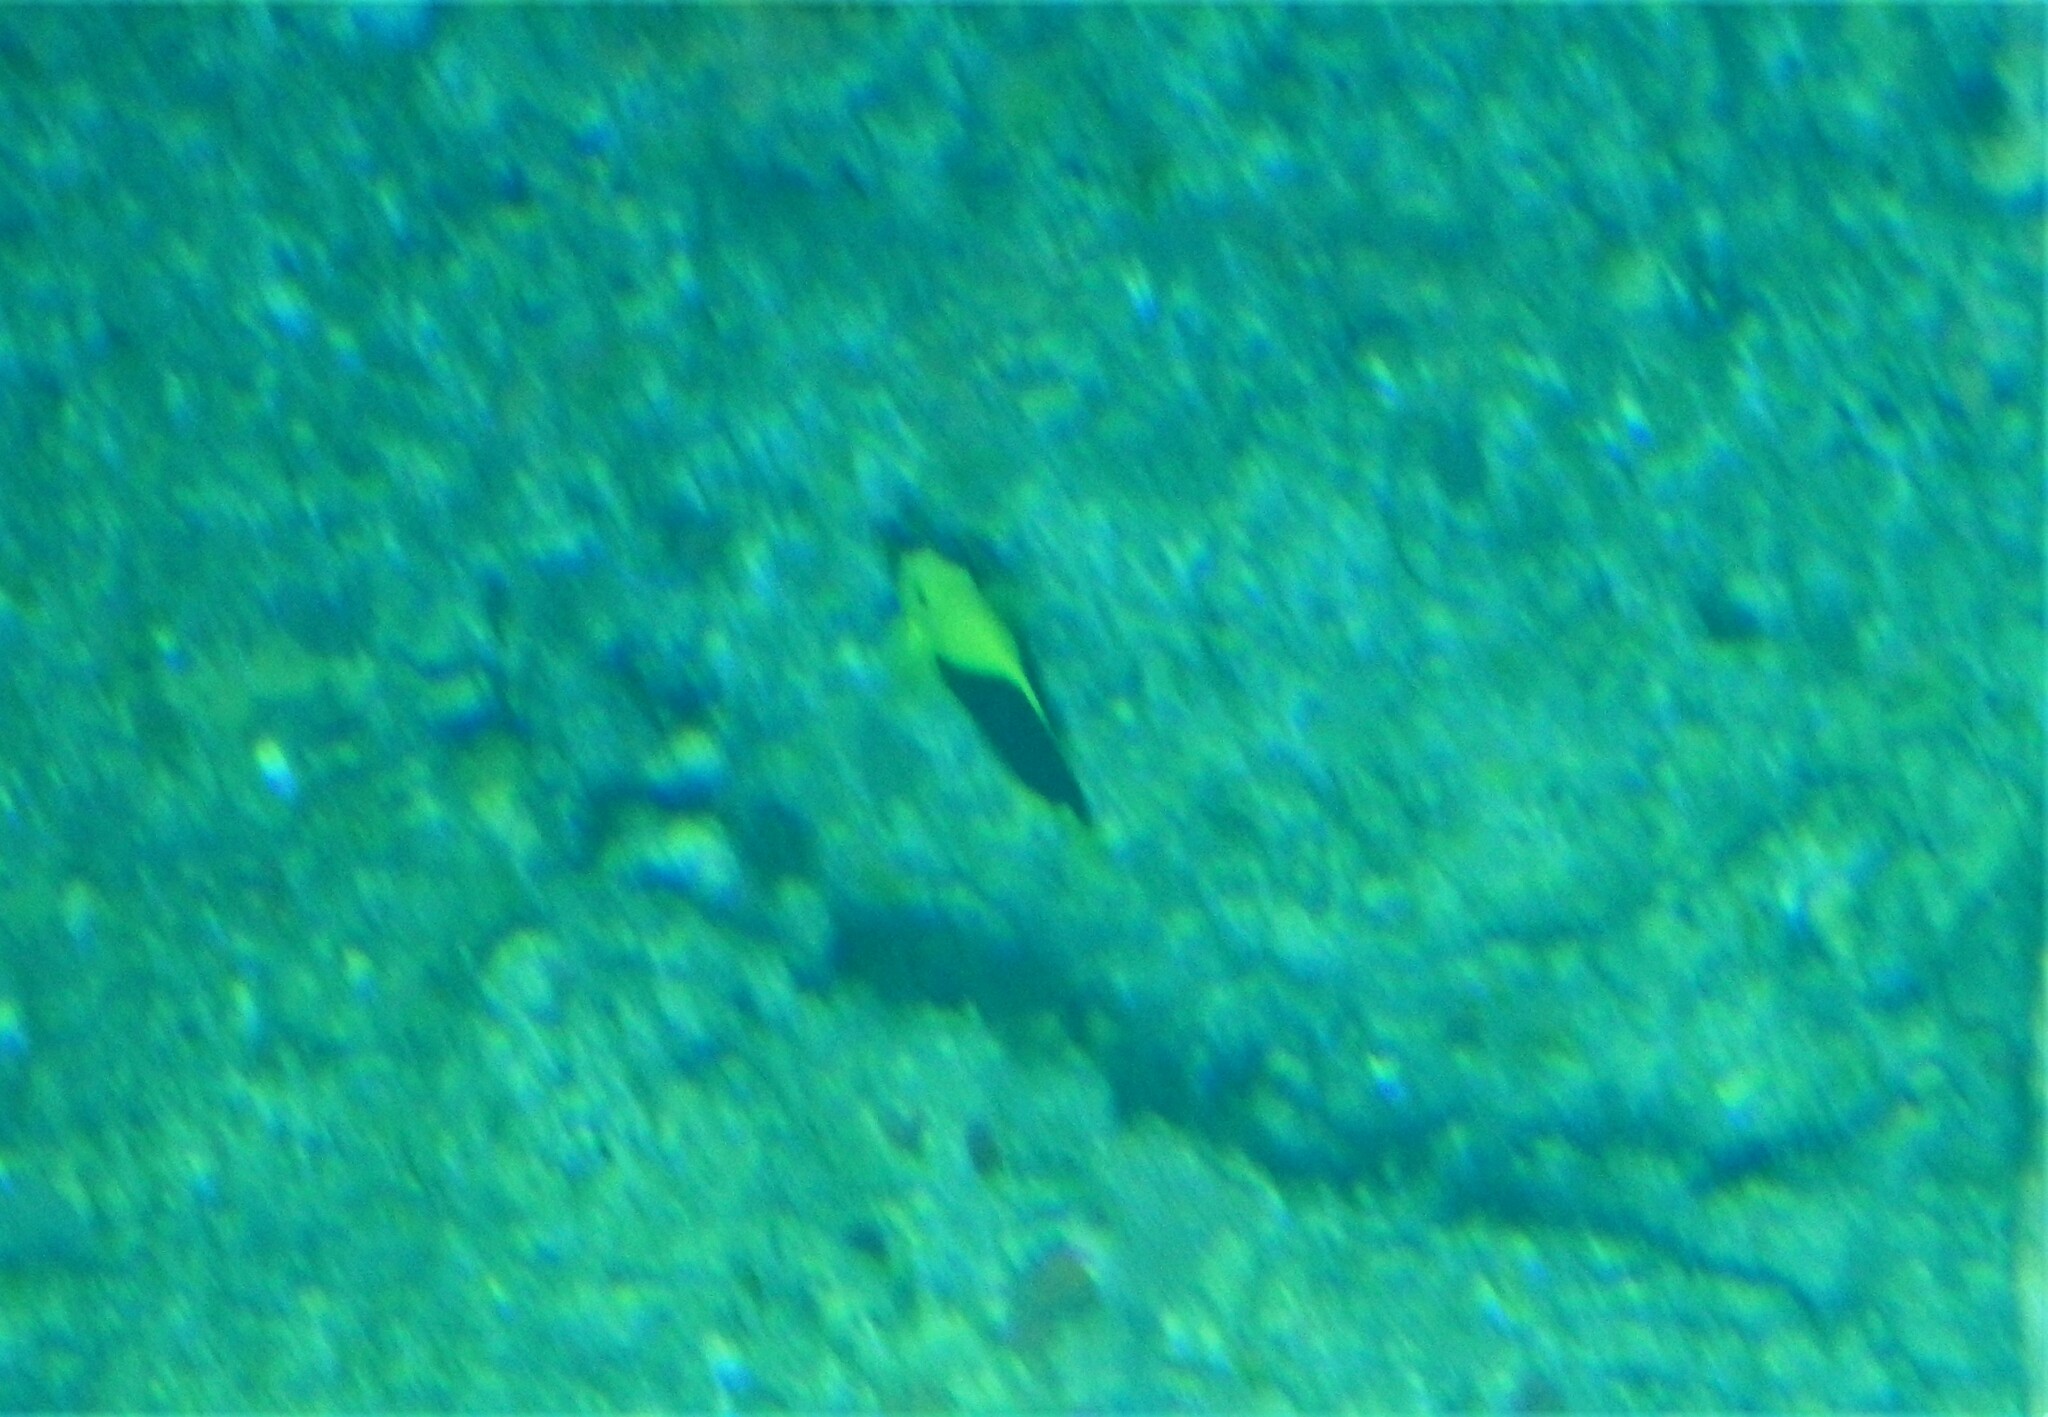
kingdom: Animalia
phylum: Chordata
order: Perciformes
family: Pomacanthidae
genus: Holacanthus
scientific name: Holacanthus tricolor
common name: Rock beauty
